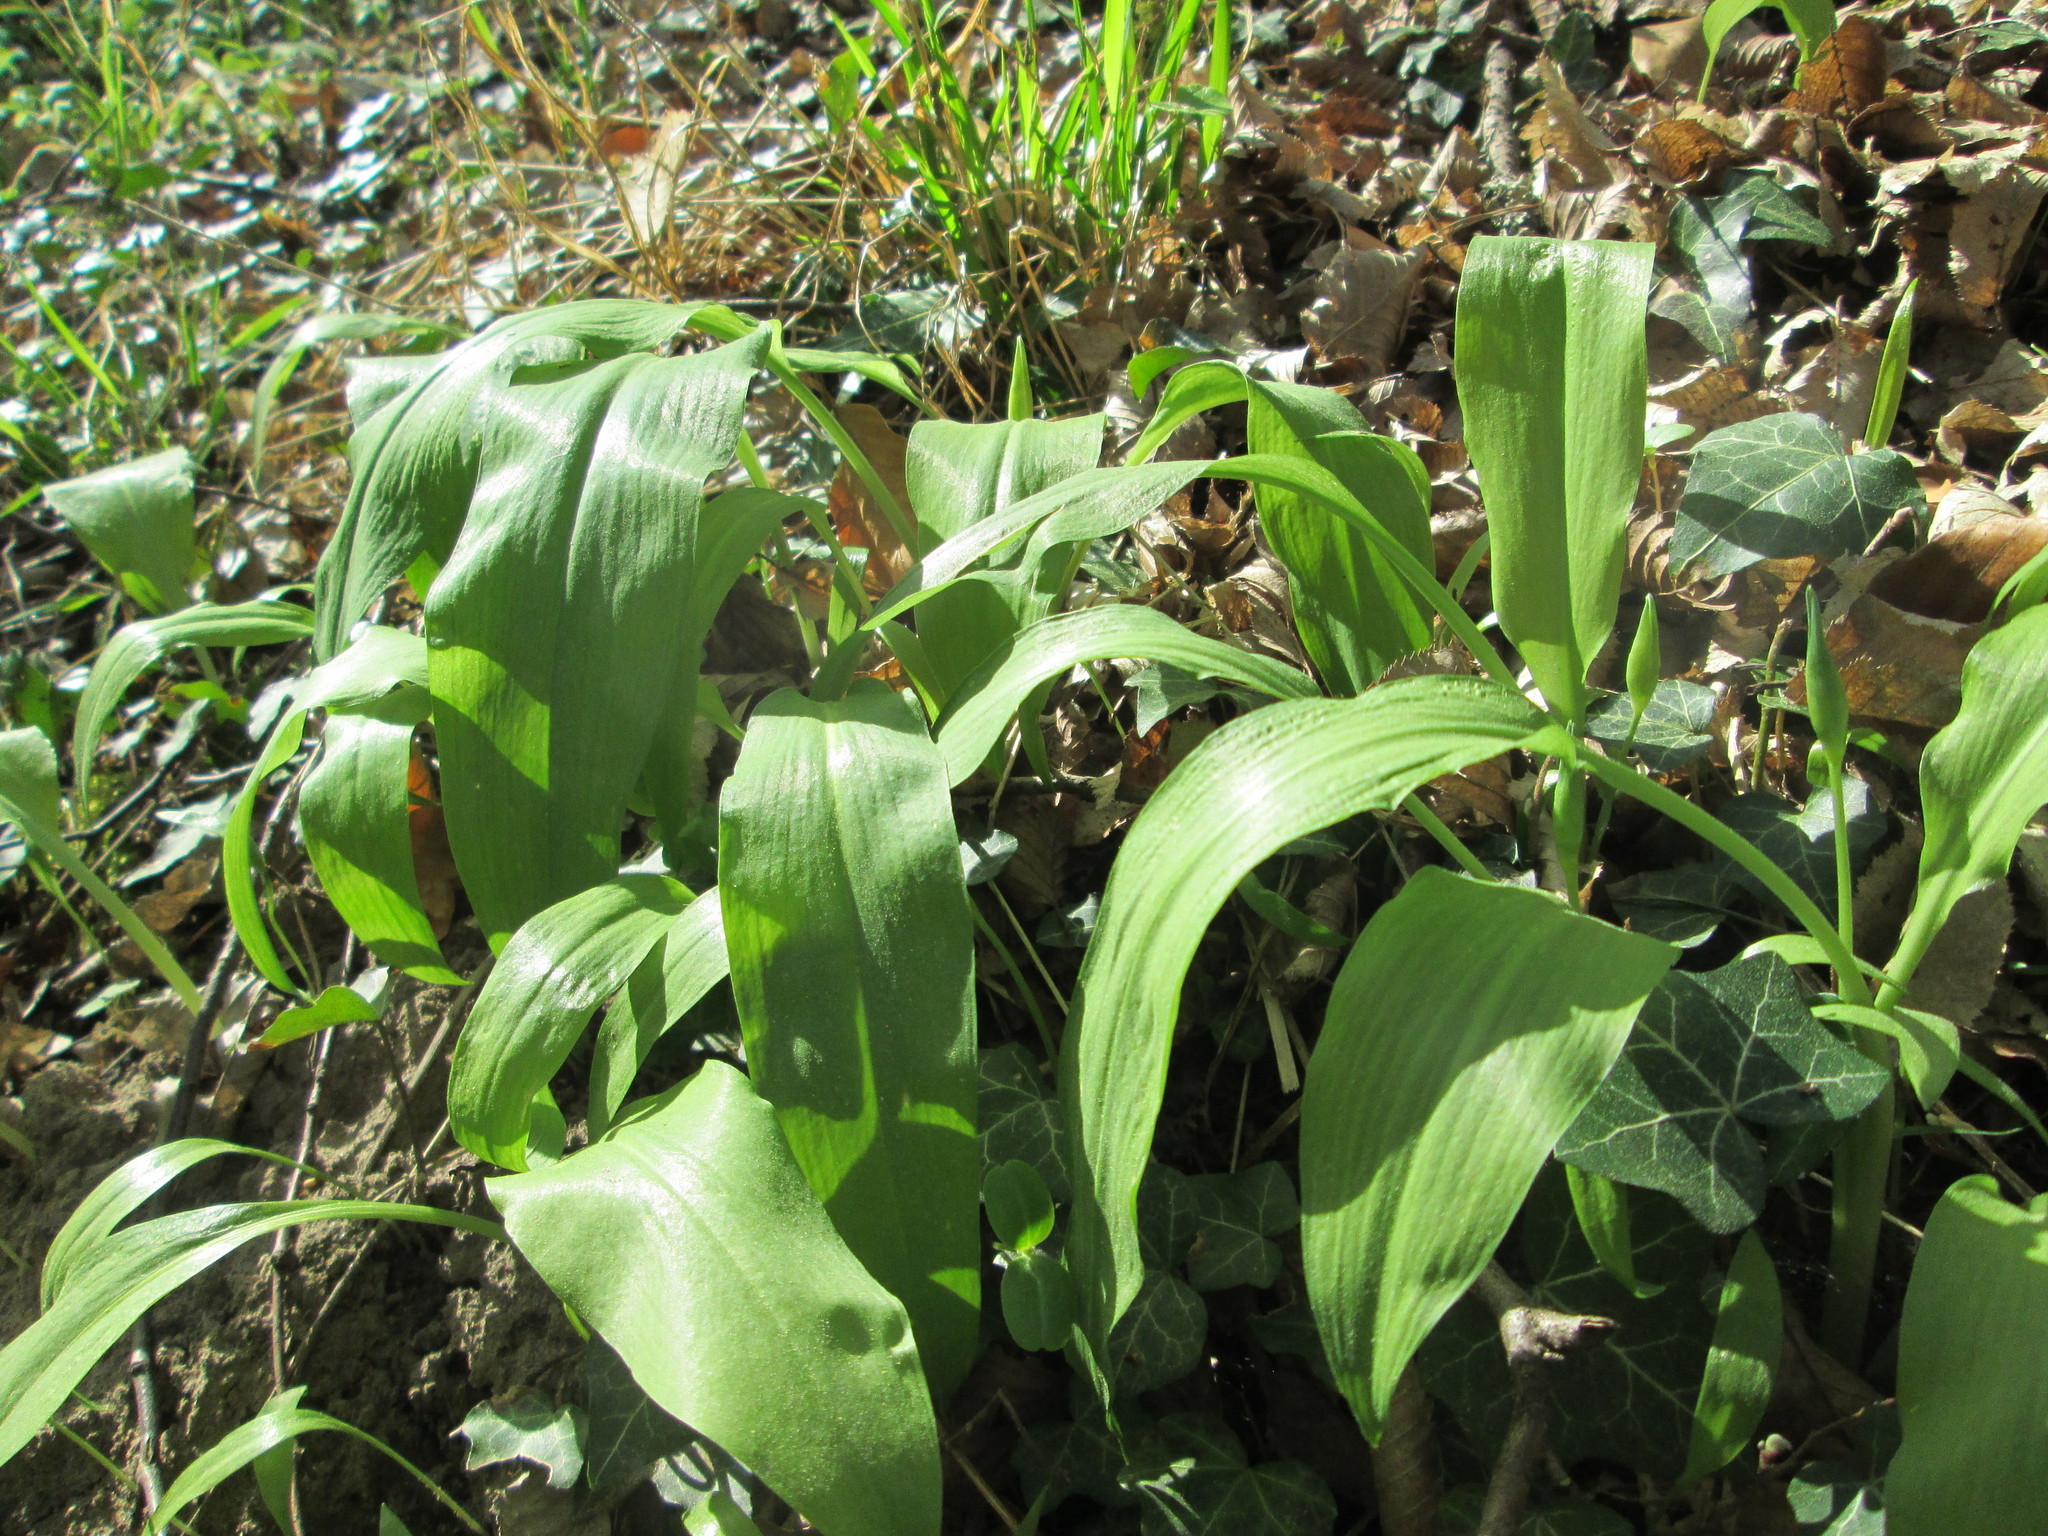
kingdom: Plantae
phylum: Tracheophyta
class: Liliopsida
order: Asparagales
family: Amaryllidaceae
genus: Allium
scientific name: Allium ursinum
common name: Ramsons
